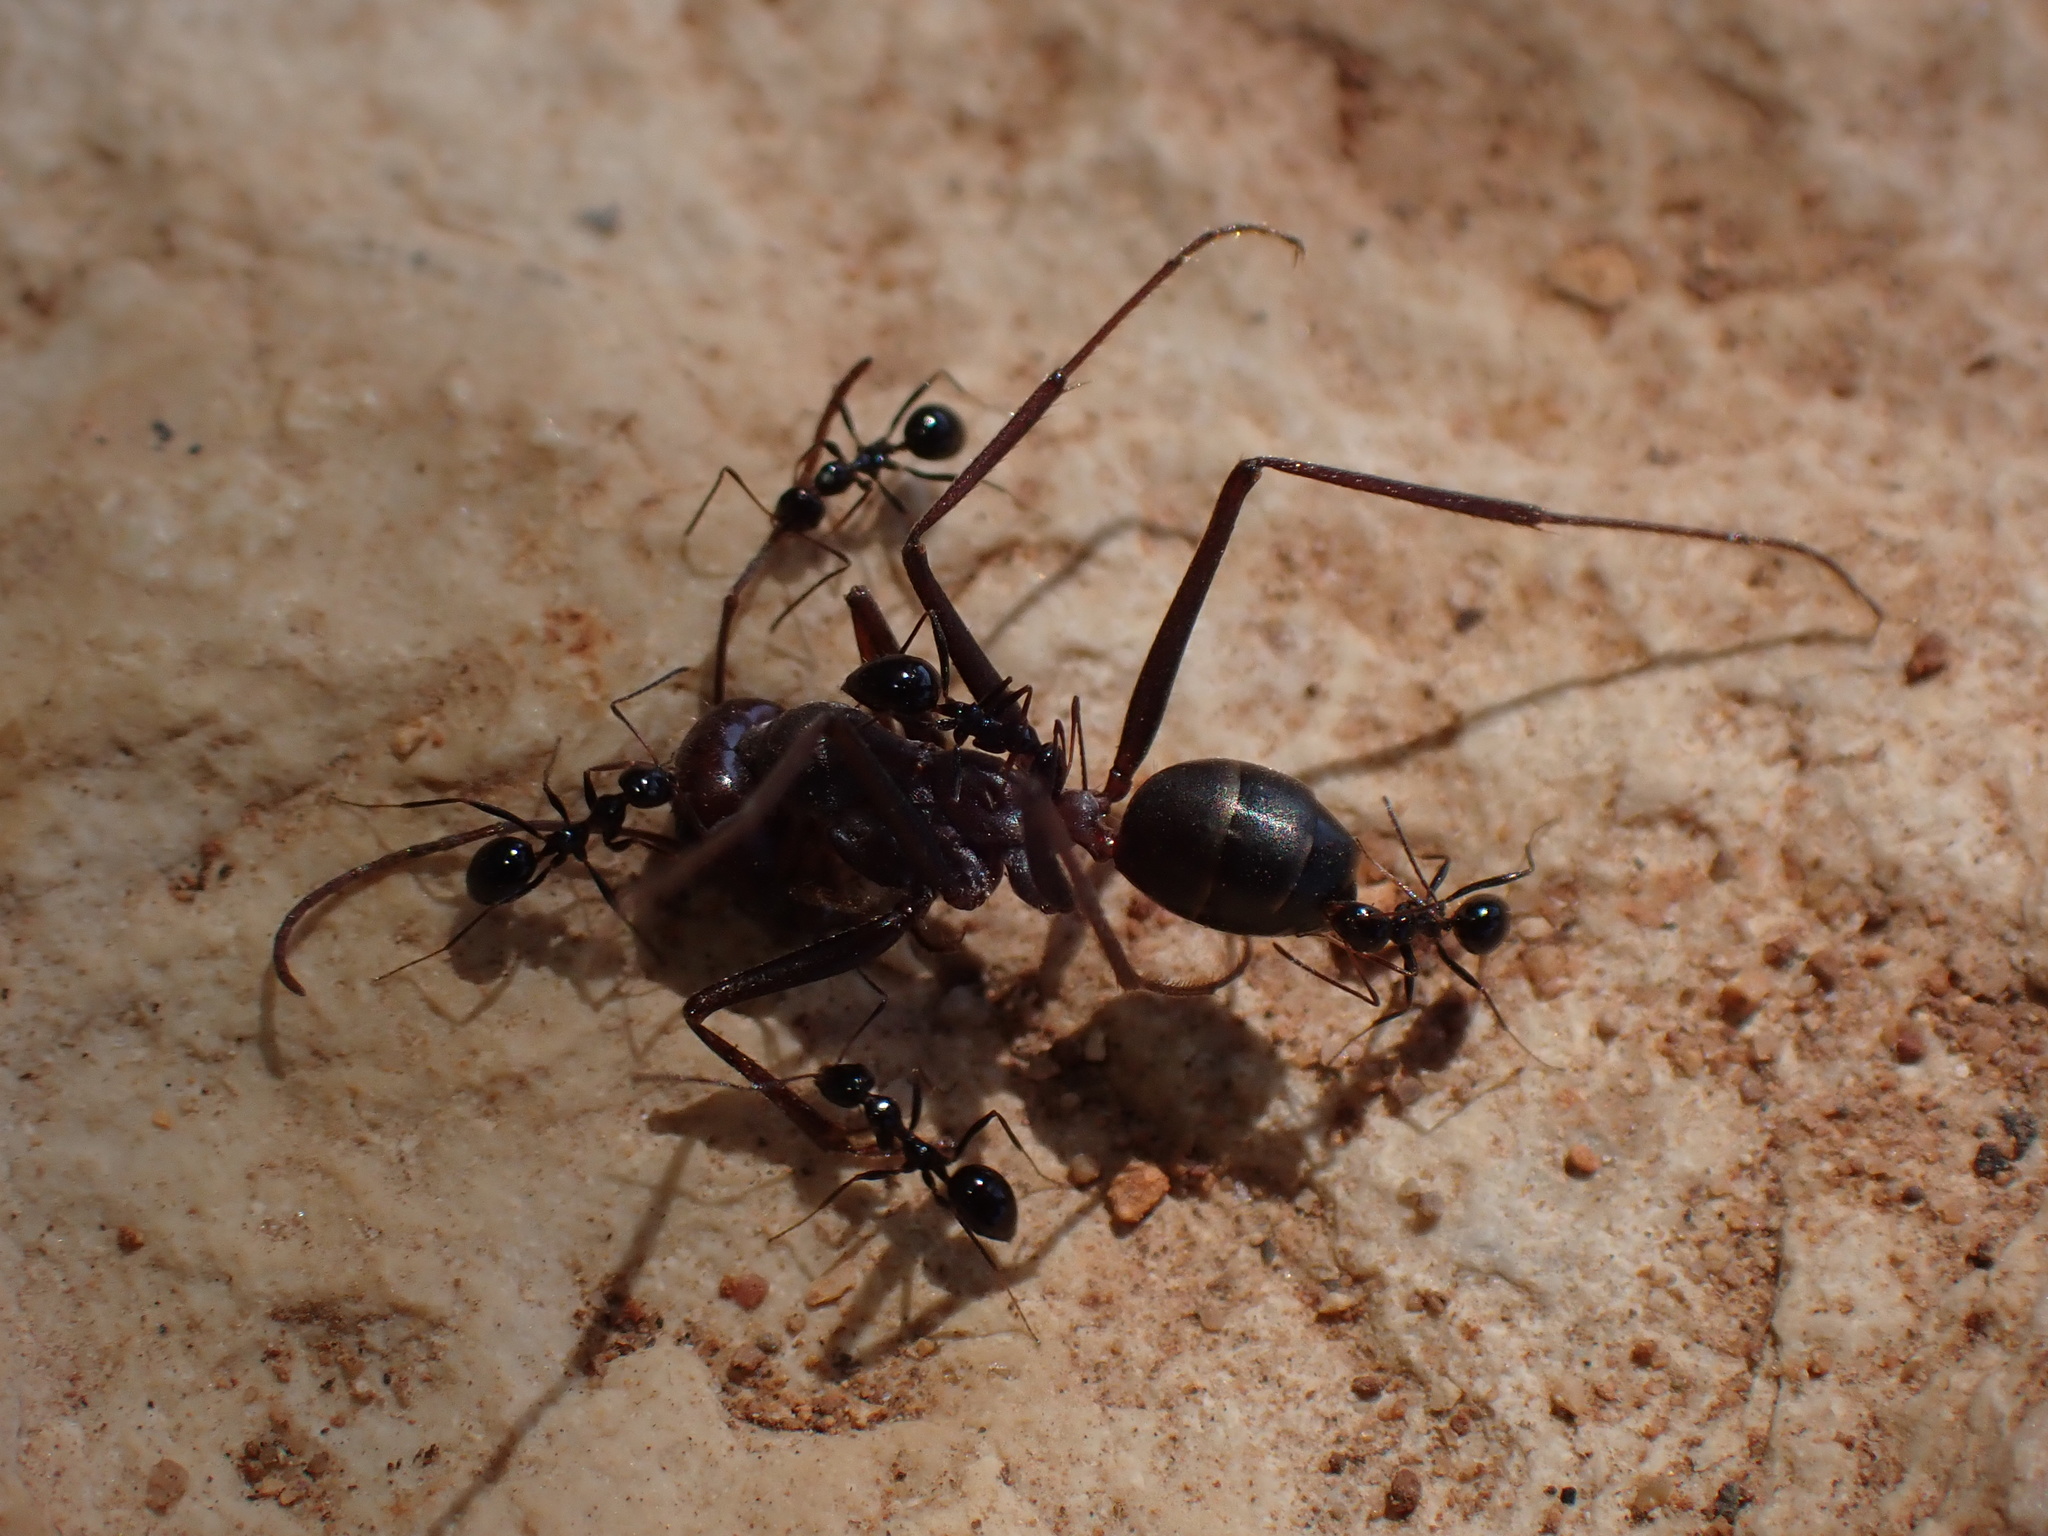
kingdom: Animalia
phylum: Arthropoda
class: Insecta
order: Hymenoptera
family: Formicidae
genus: Cataglyphis
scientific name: Cataglyphis nodus
